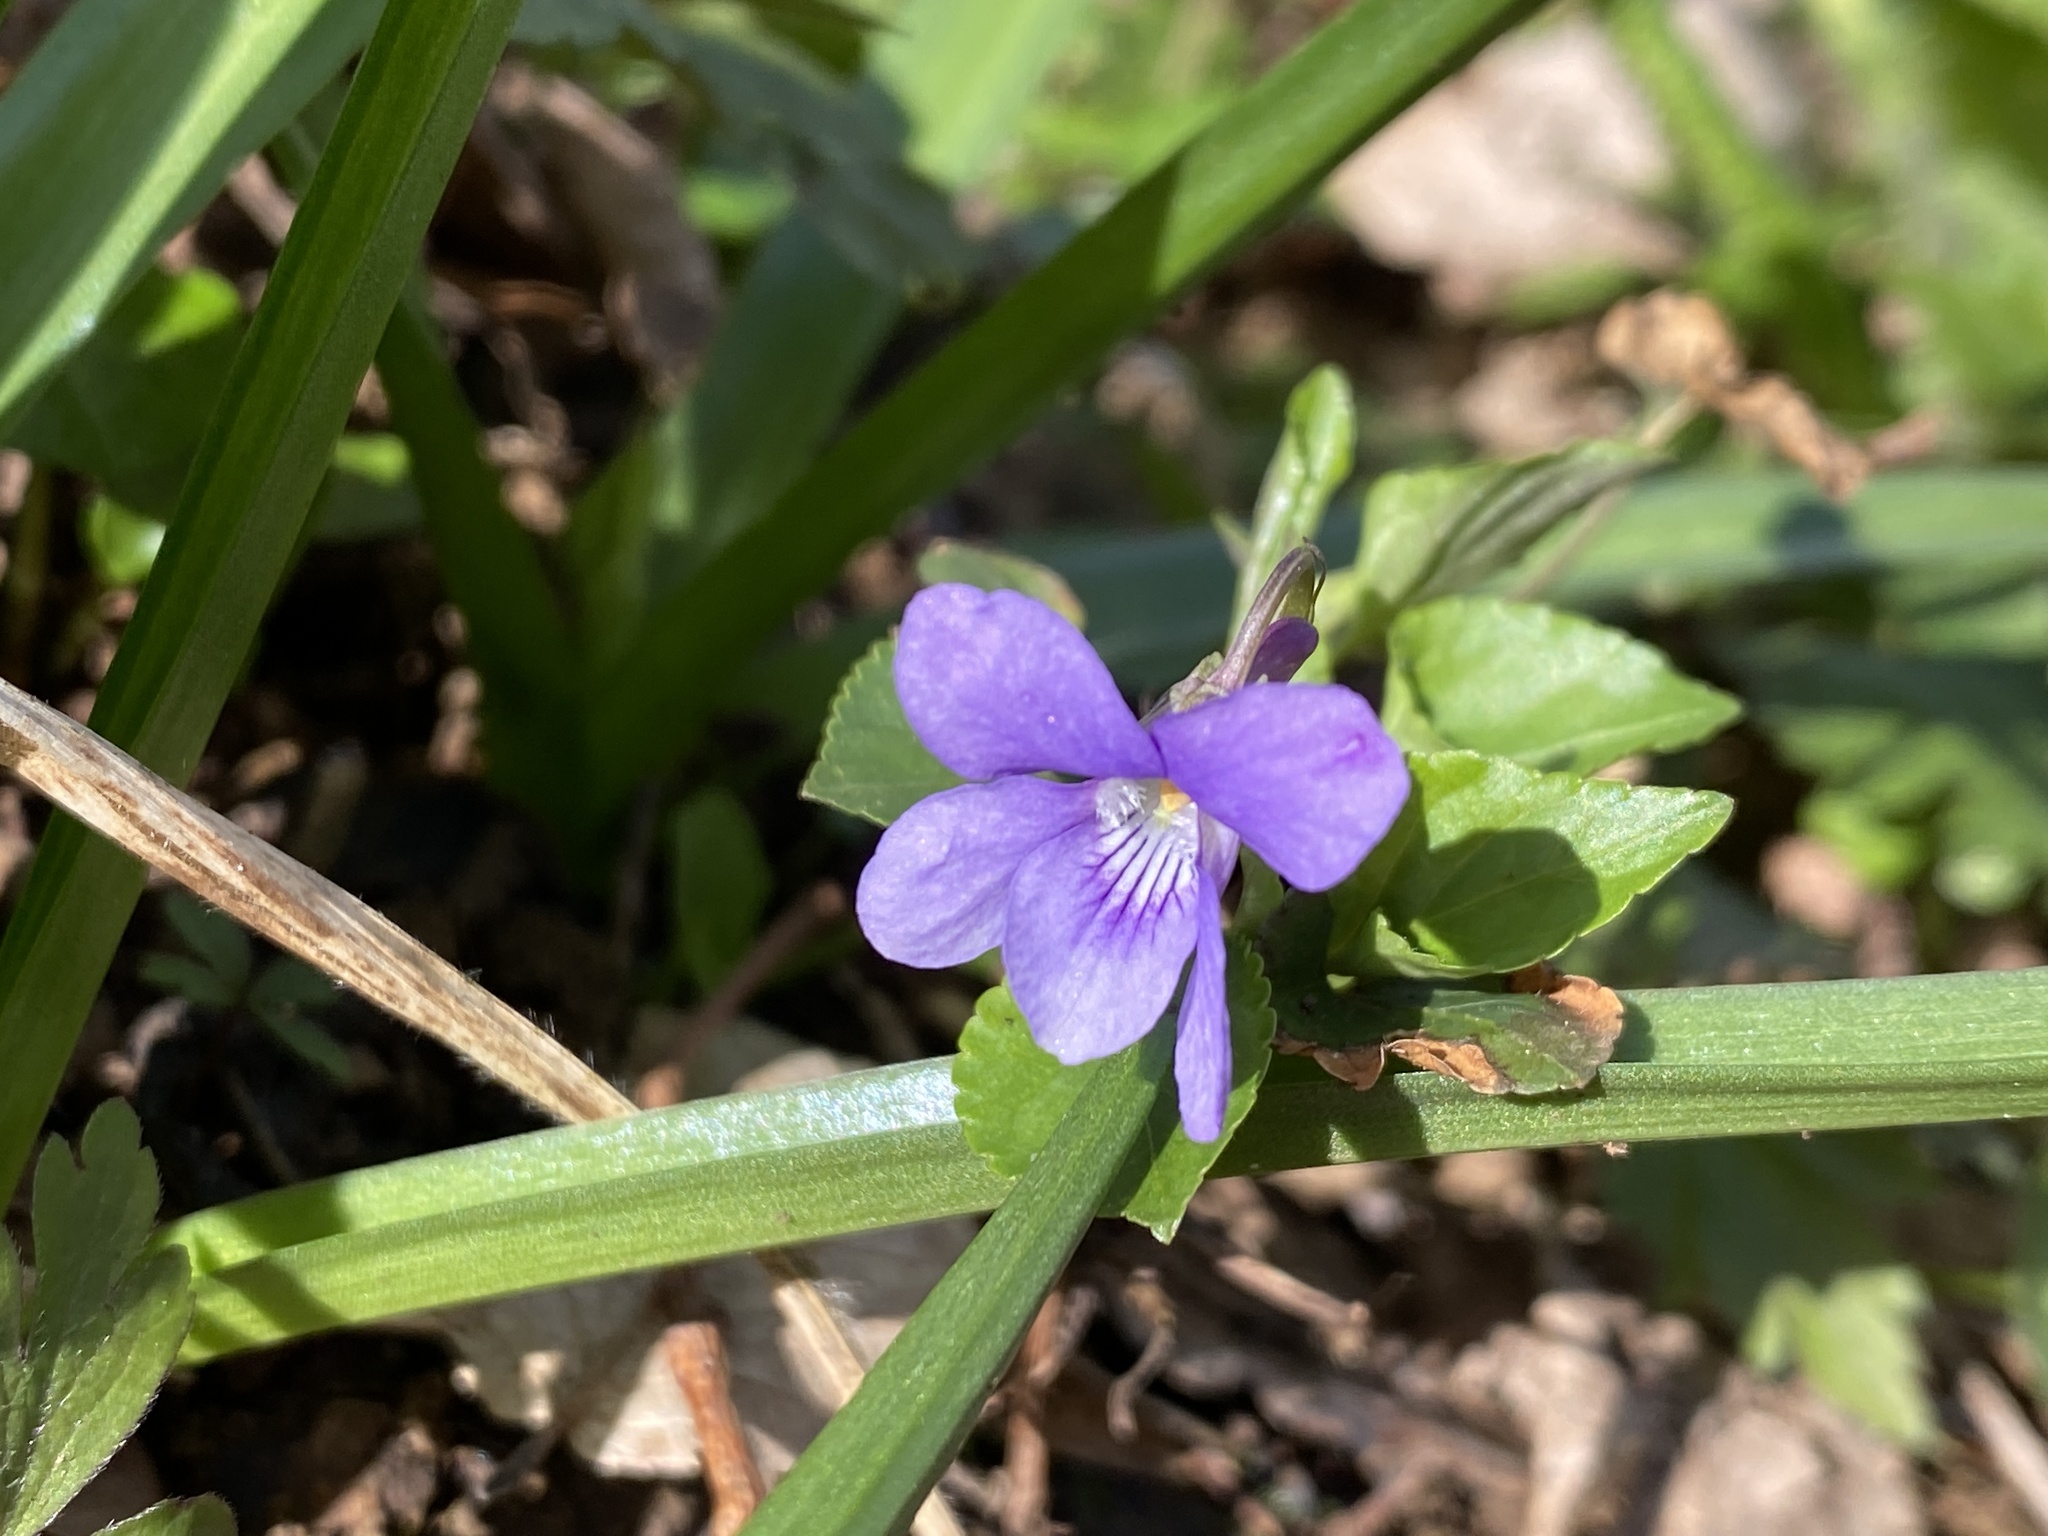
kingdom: Plantae
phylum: Tracheophyta
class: Magnoliopsida
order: Malpighiales
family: Violaceae
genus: Viola
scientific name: Viola reichenbachiana
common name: Early dog-violet
